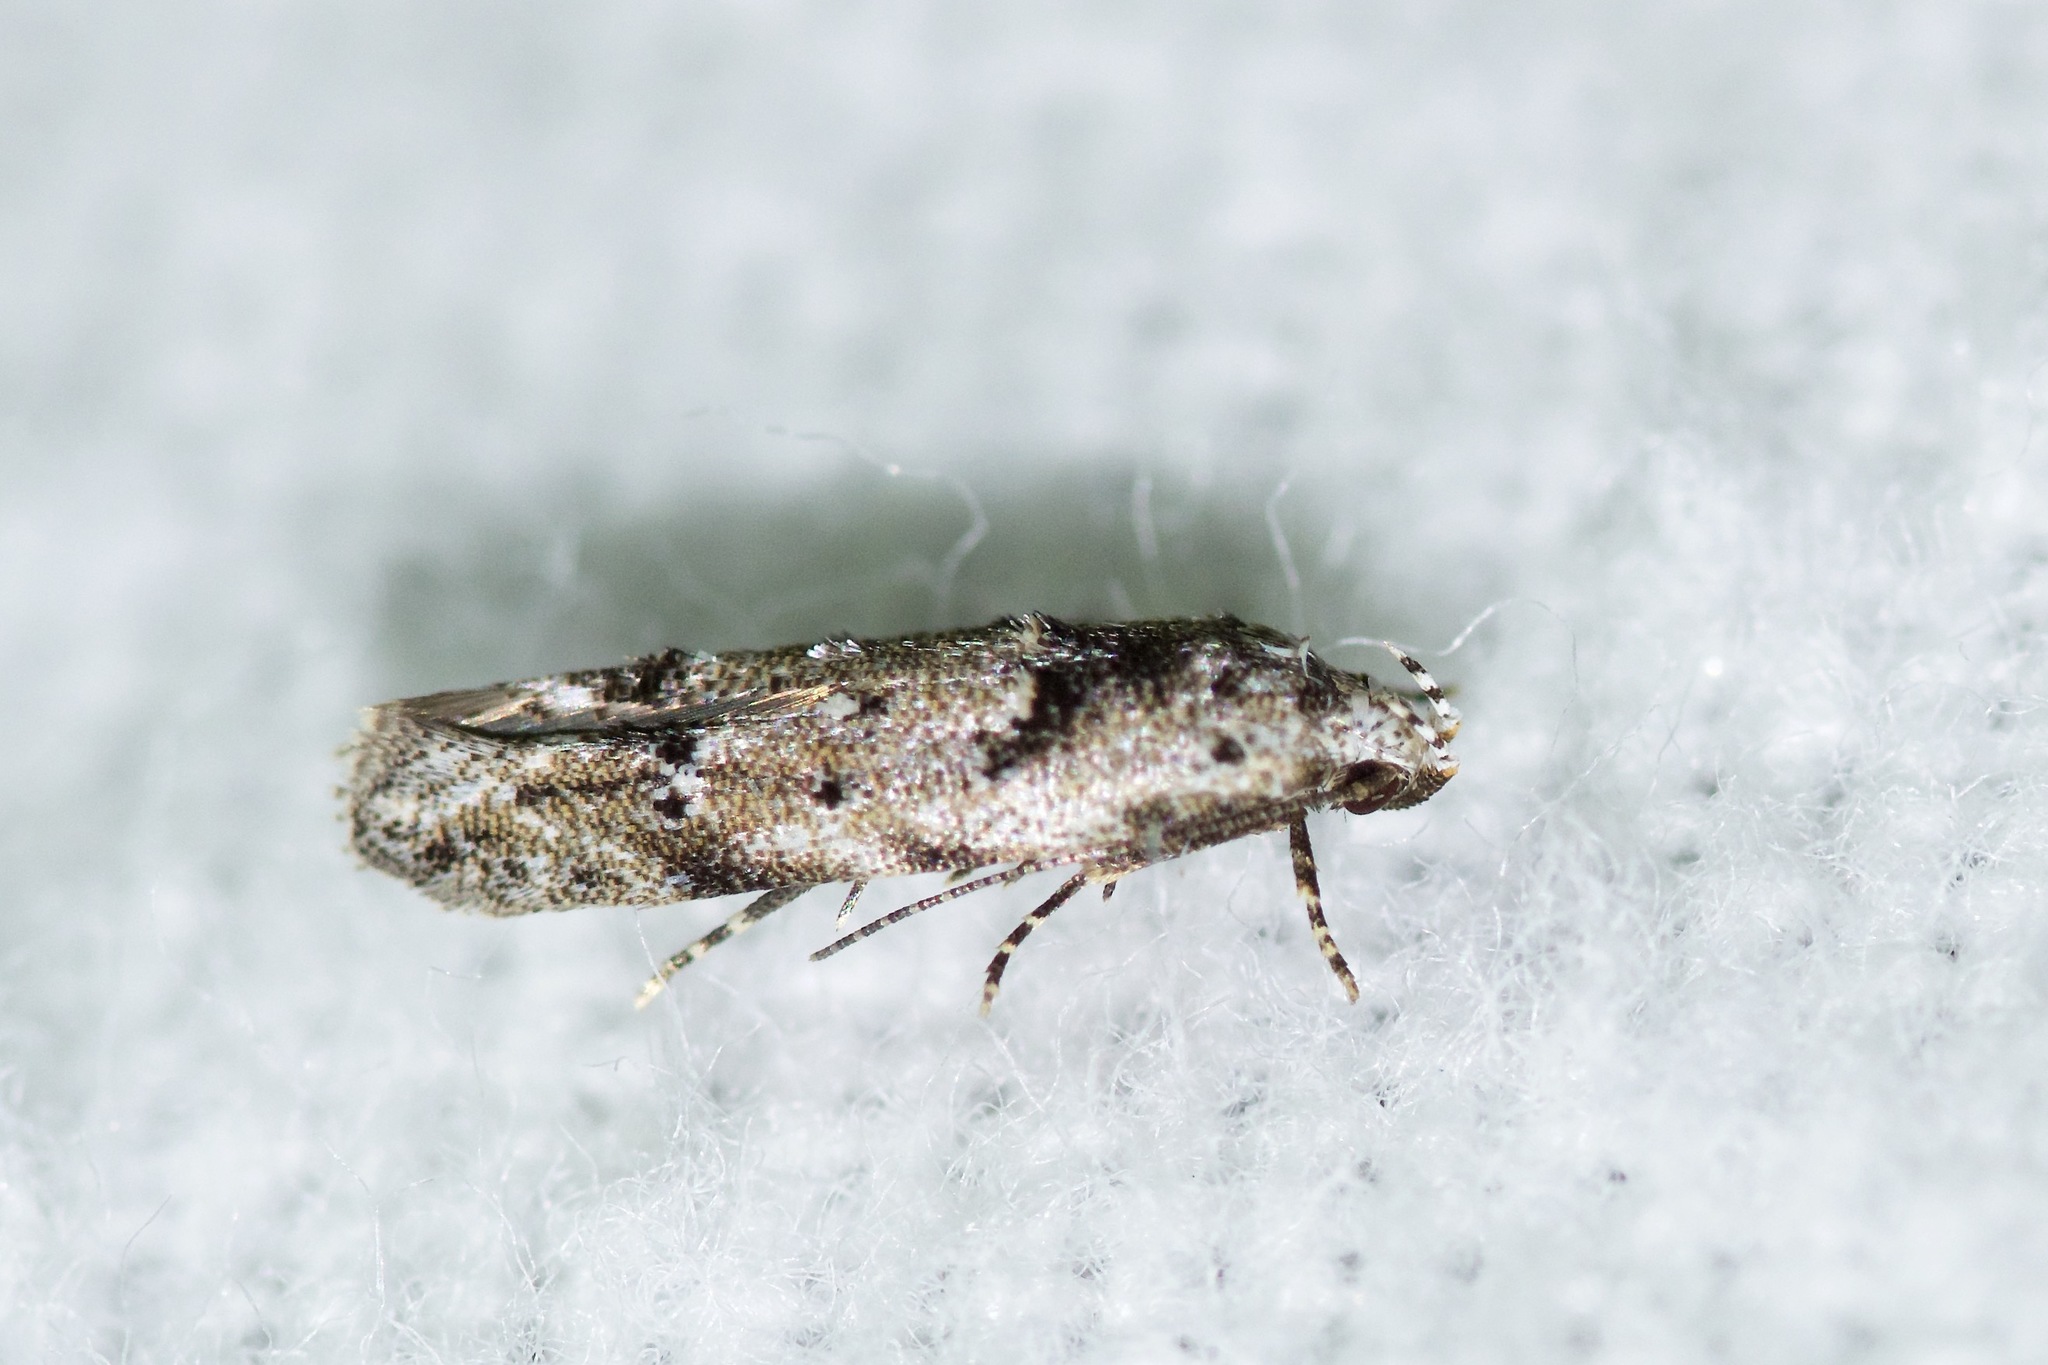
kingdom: Animalia
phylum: Arthropoda
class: Insecta
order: Lepidoptera
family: Gelechiidae
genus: Sinoe
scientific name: Sinoe robiniella
